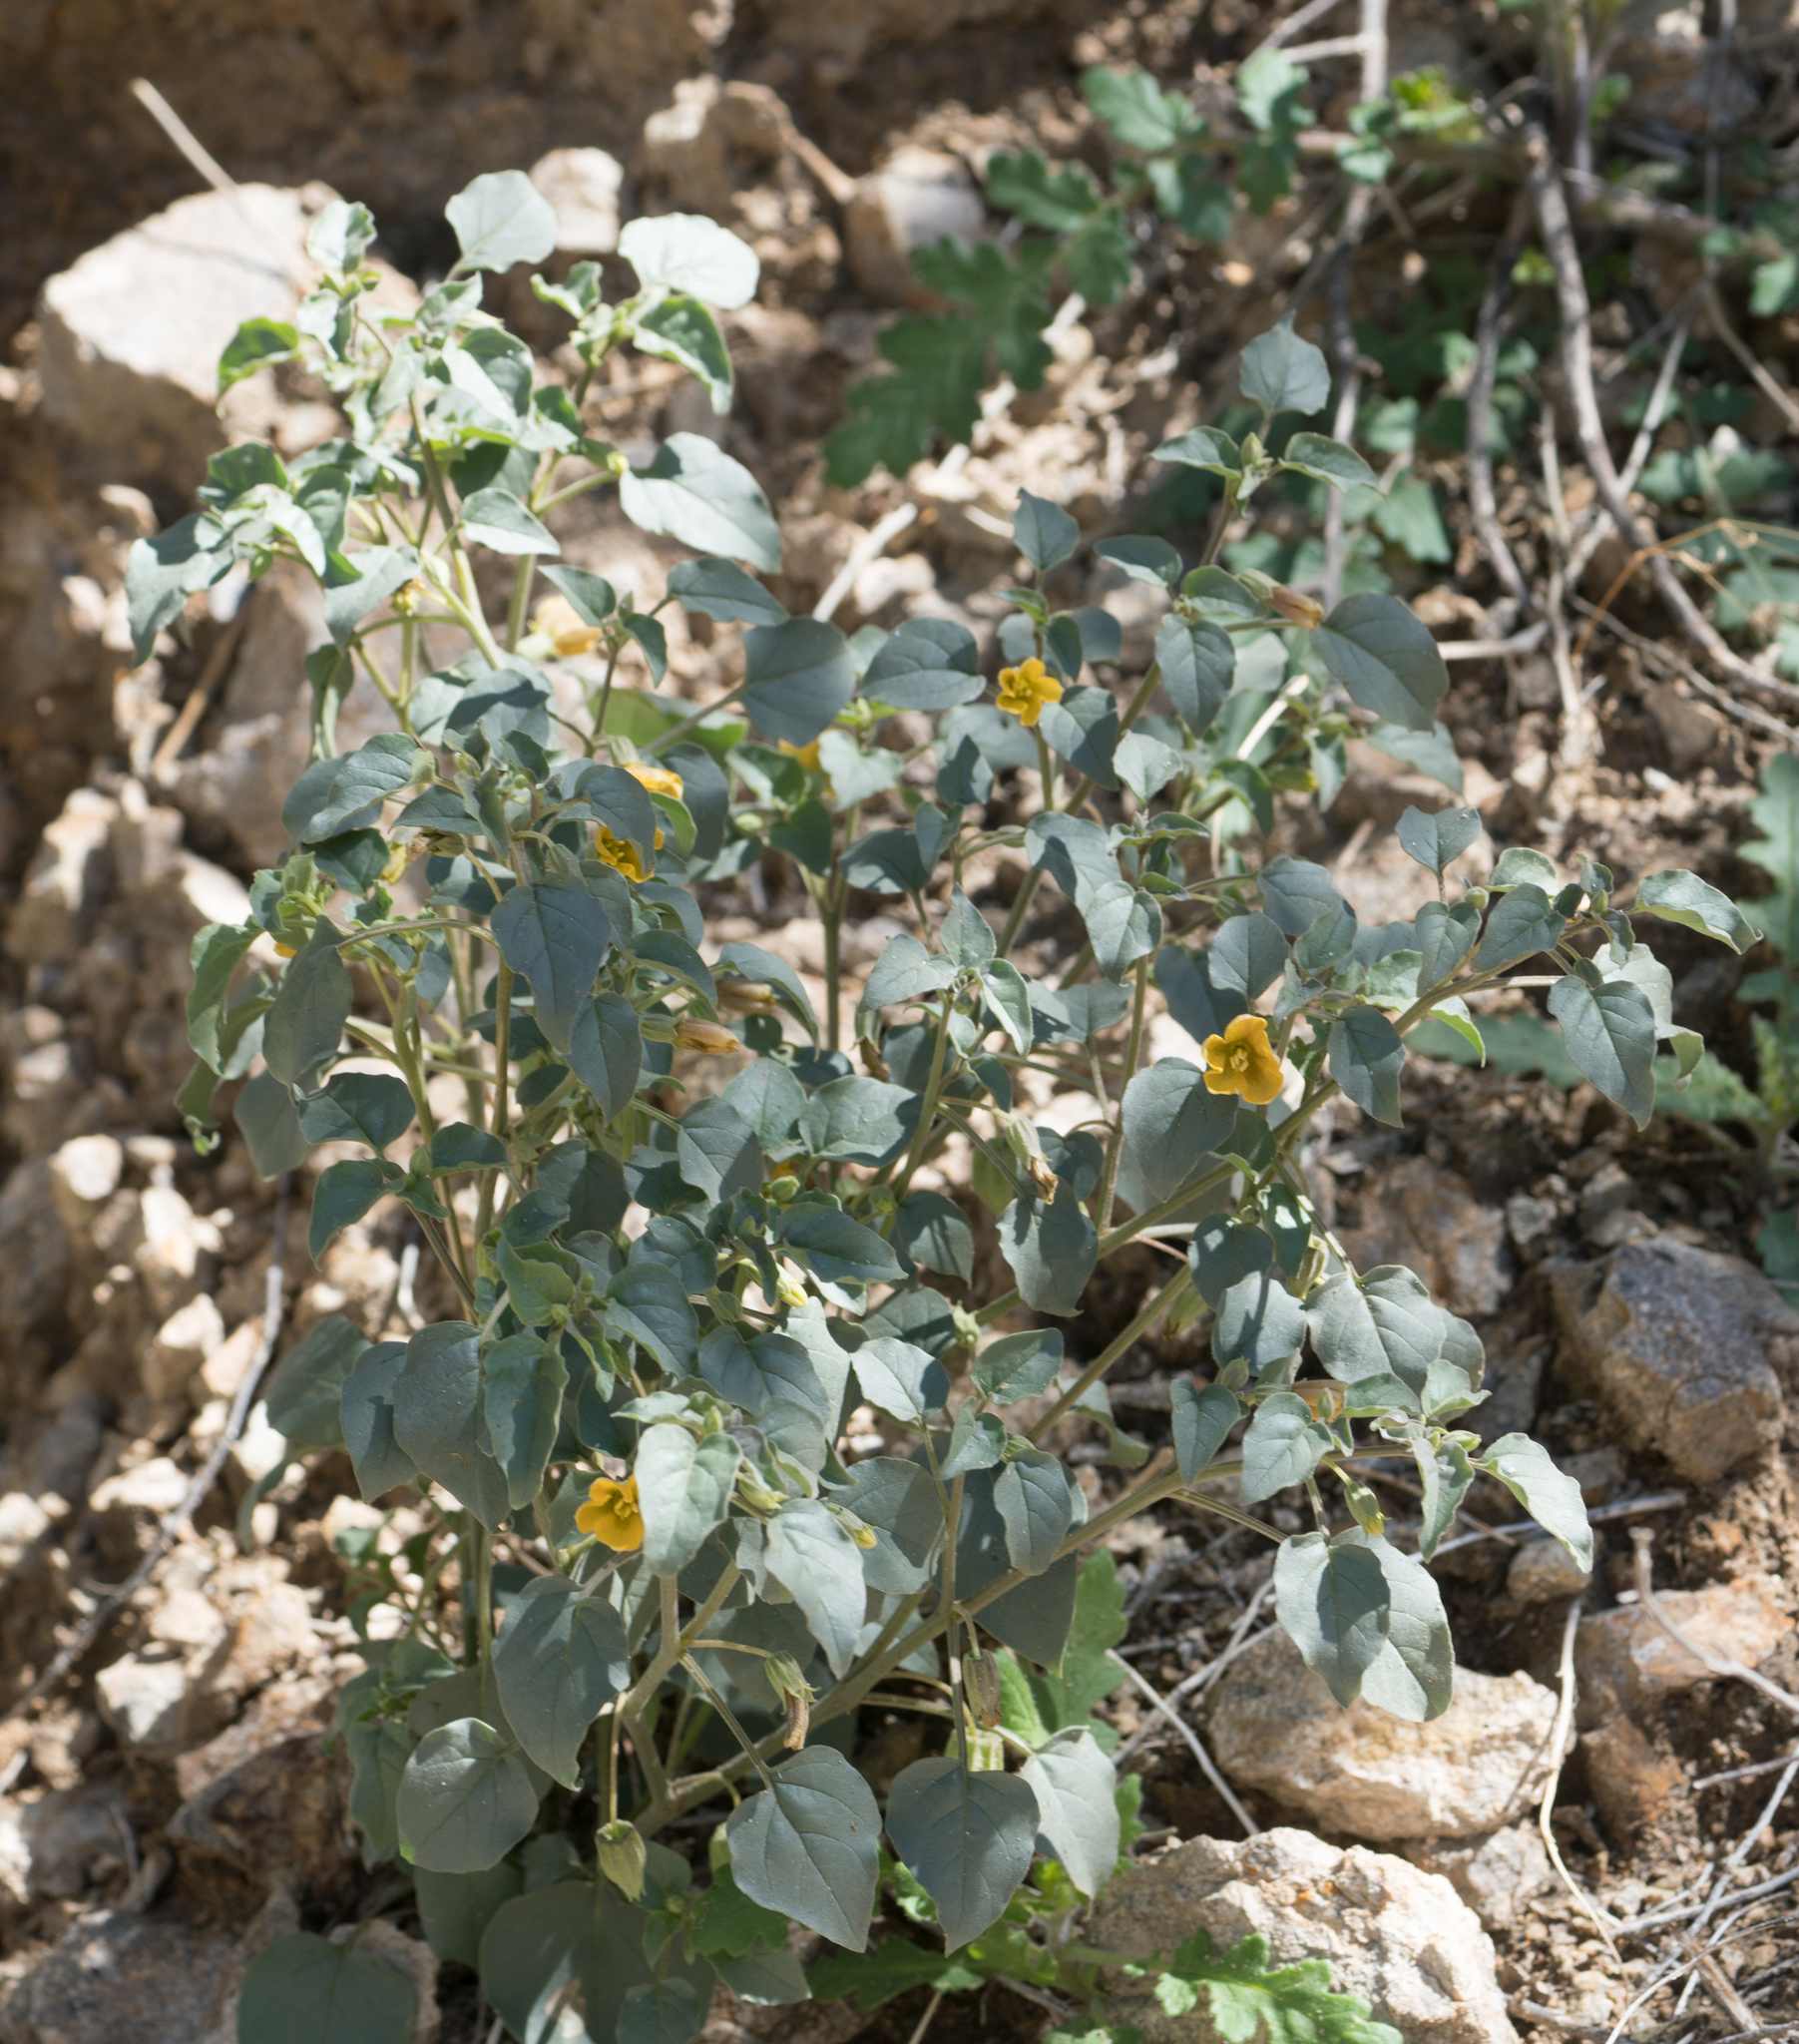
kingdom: Plantae
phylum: Tracheophyta
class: Magnoliopsida
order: Solanales
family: Solanaceae
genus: Physalis
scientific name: Physalis crassifolia
